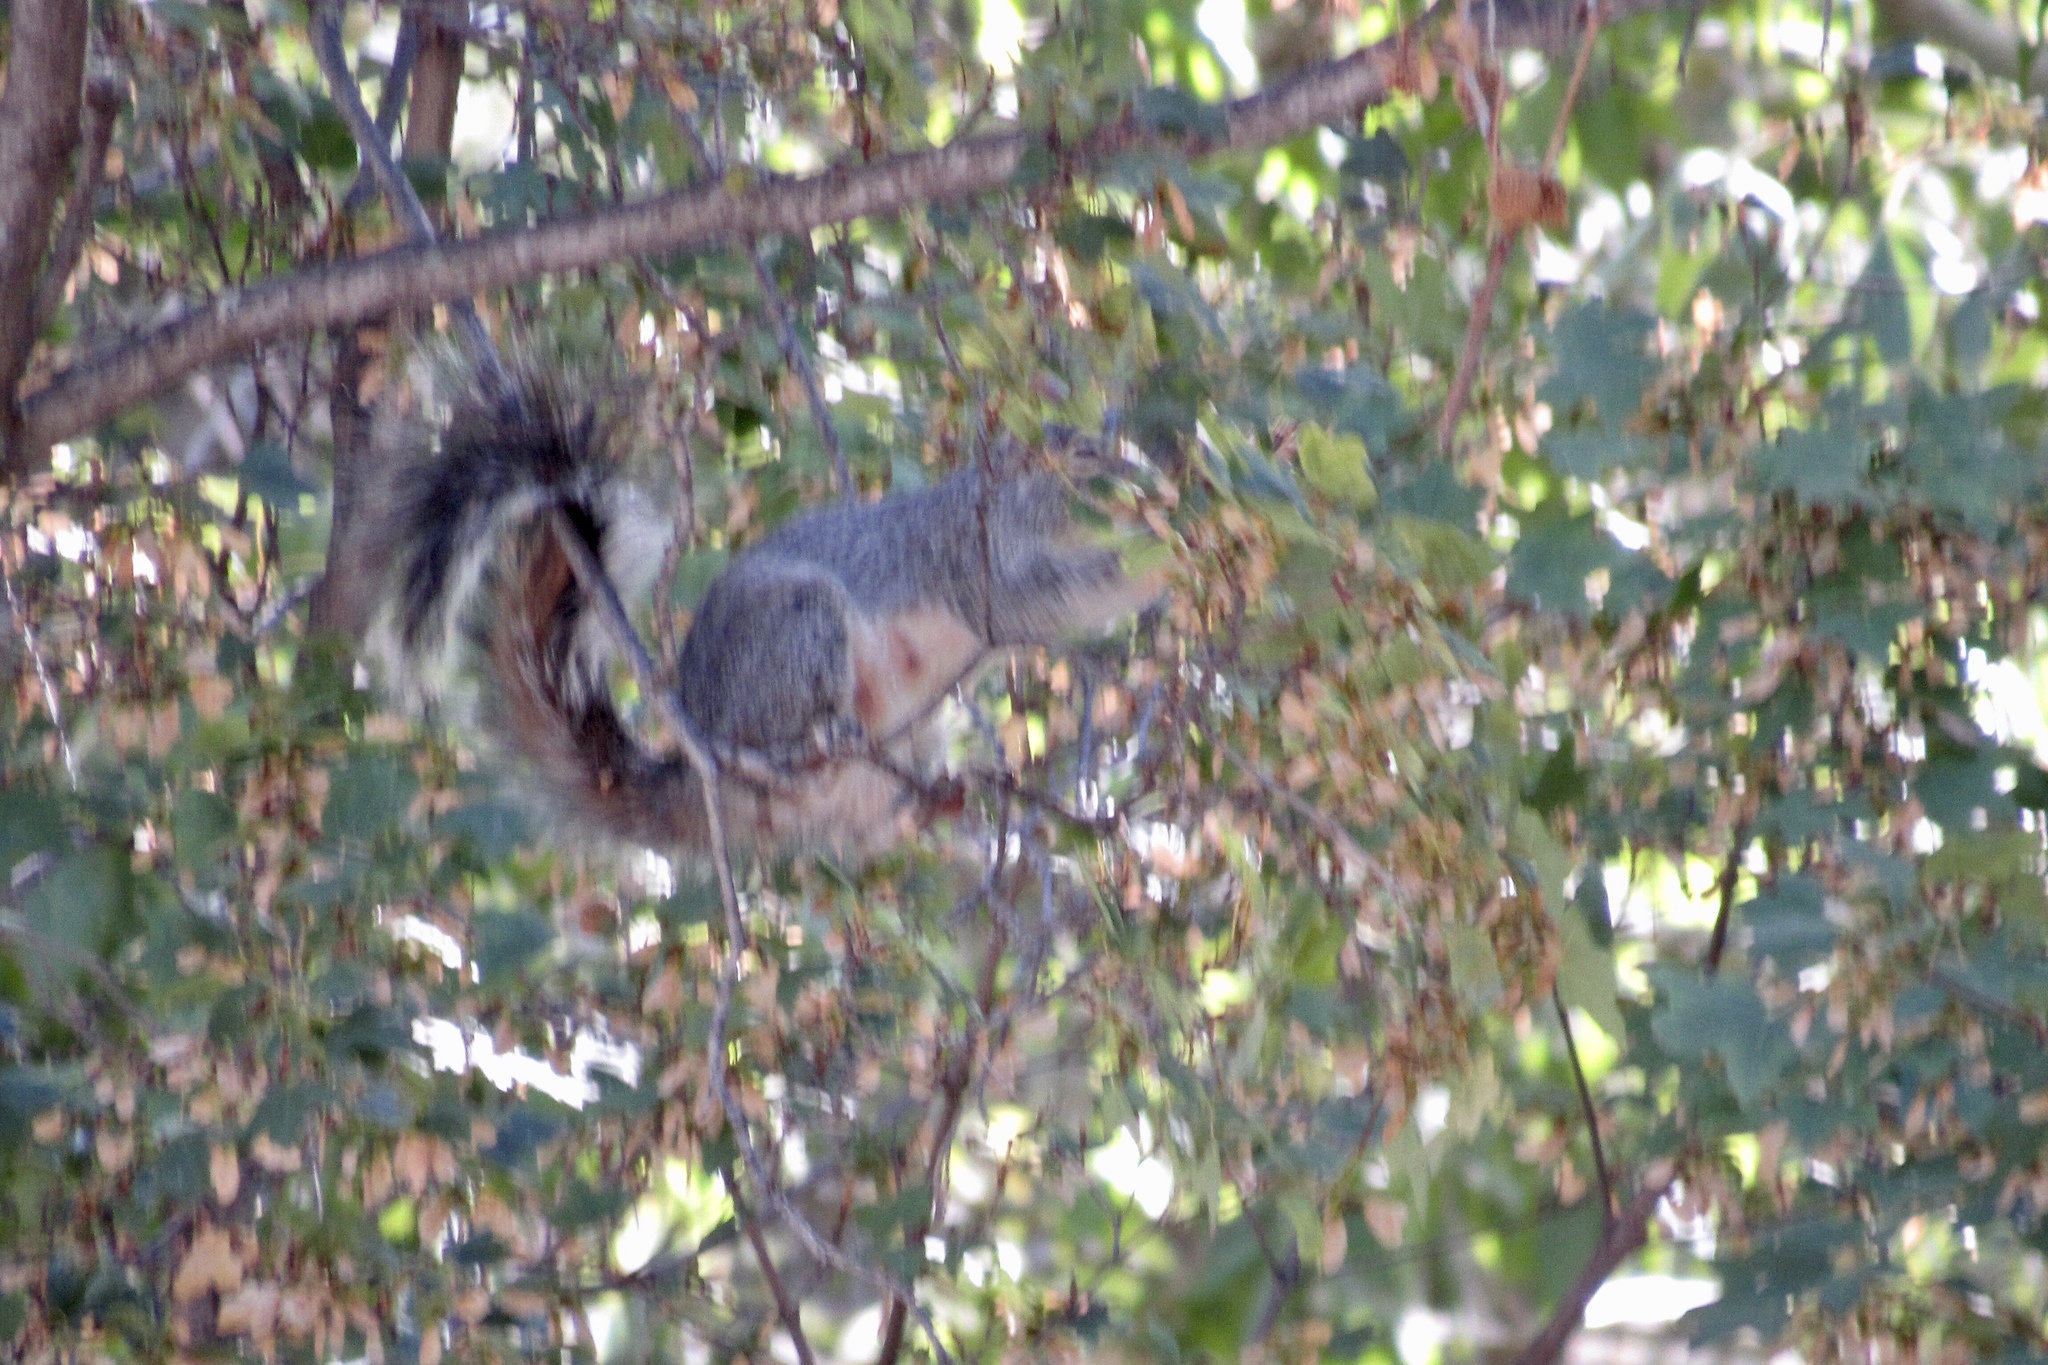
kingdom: Animalia
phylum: Chordata
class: Mammalia
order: Rodentia
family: Sciuridae
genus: Sciurus
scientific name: Sciurus arizonensis
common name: Arizona gray squirrel
